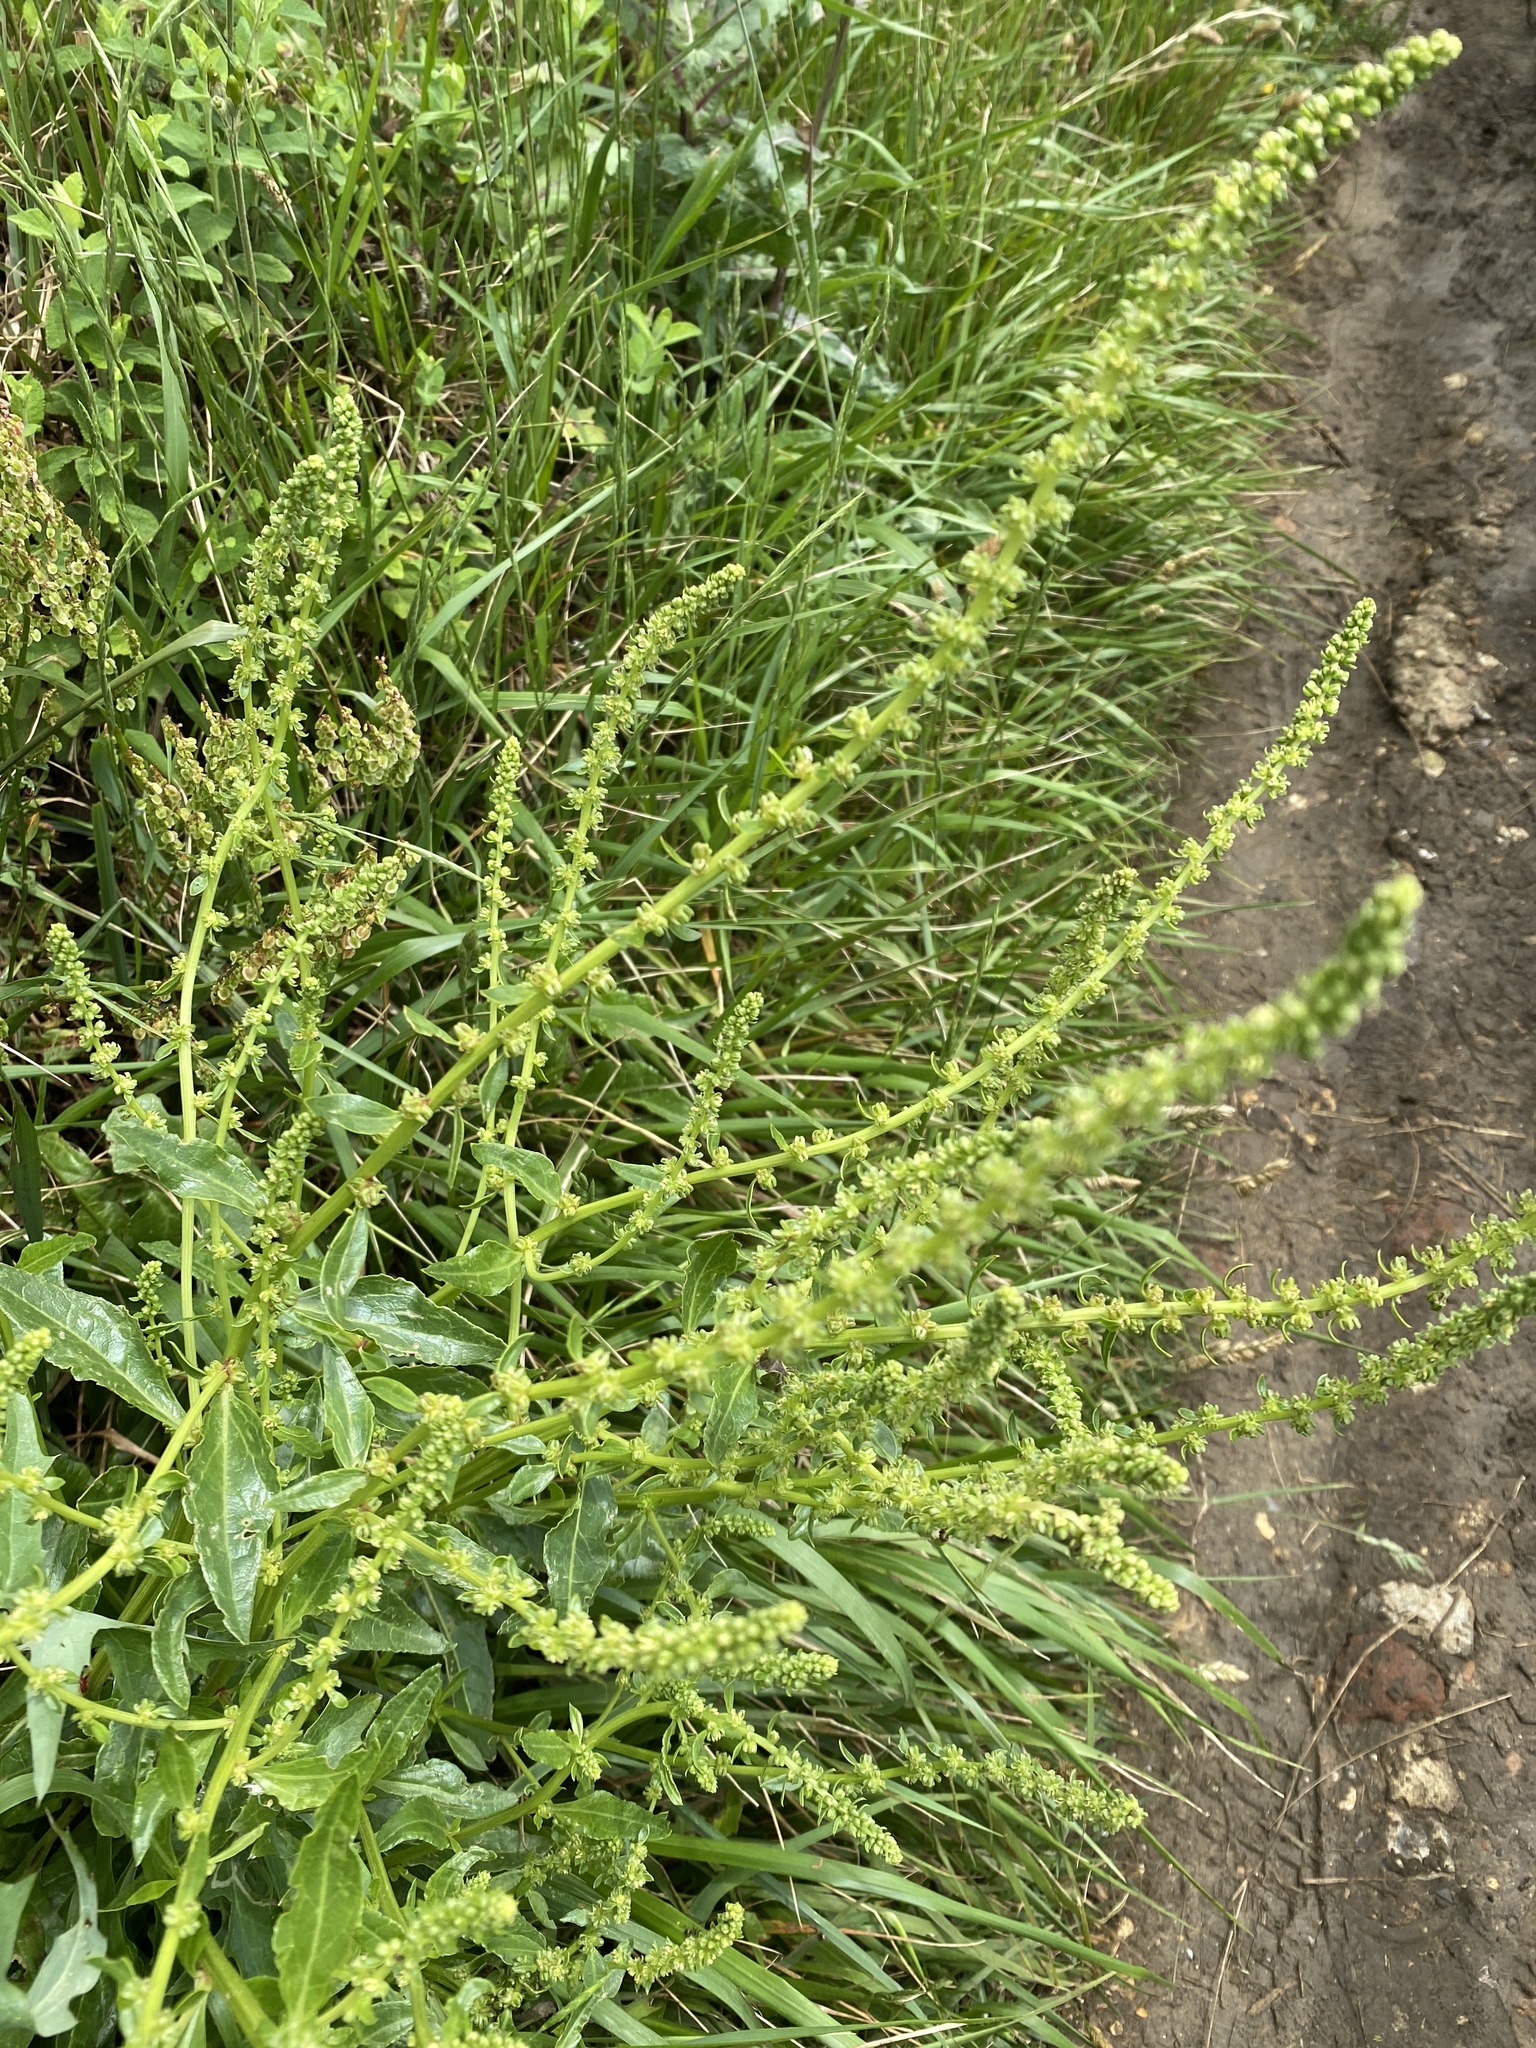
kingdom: Plantae
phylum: Tracheophyta
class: Magnoliopsida
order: Caryophyllales
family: Amaranthaceae
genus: Beta
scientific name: Beta vulgaris
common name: Beet
